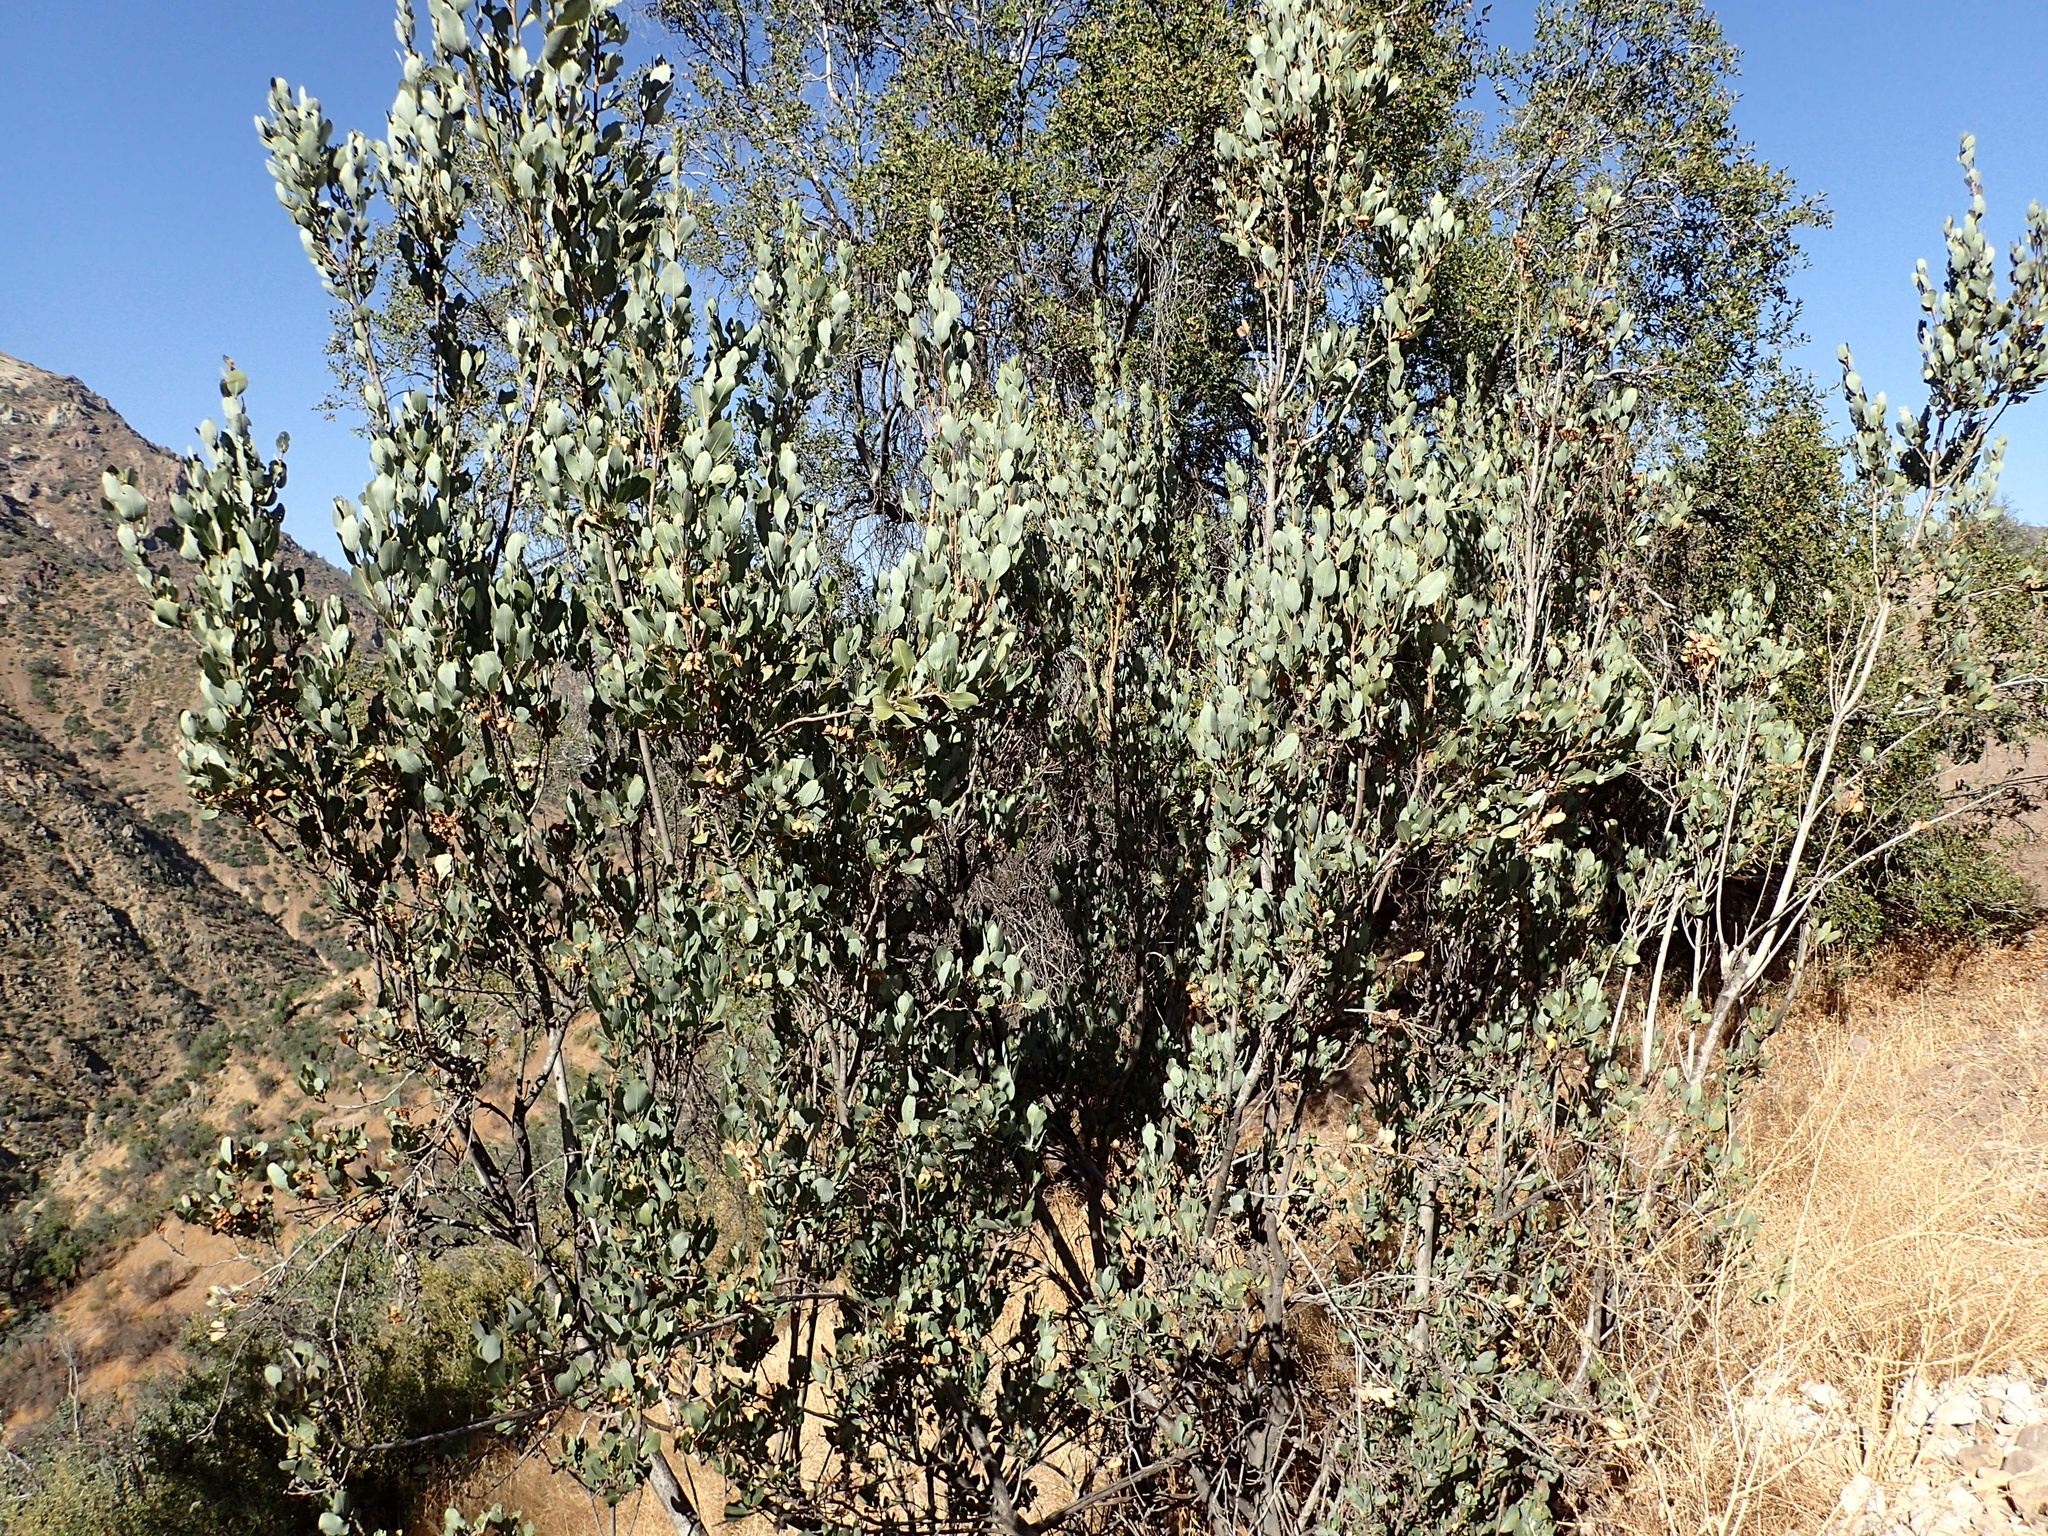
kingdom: Plantae
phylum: Tracheophyta
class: Magnoliopsida
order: Rosales
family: Rosaceae
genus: Kageneckia
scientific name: Kageneckia oblonga
